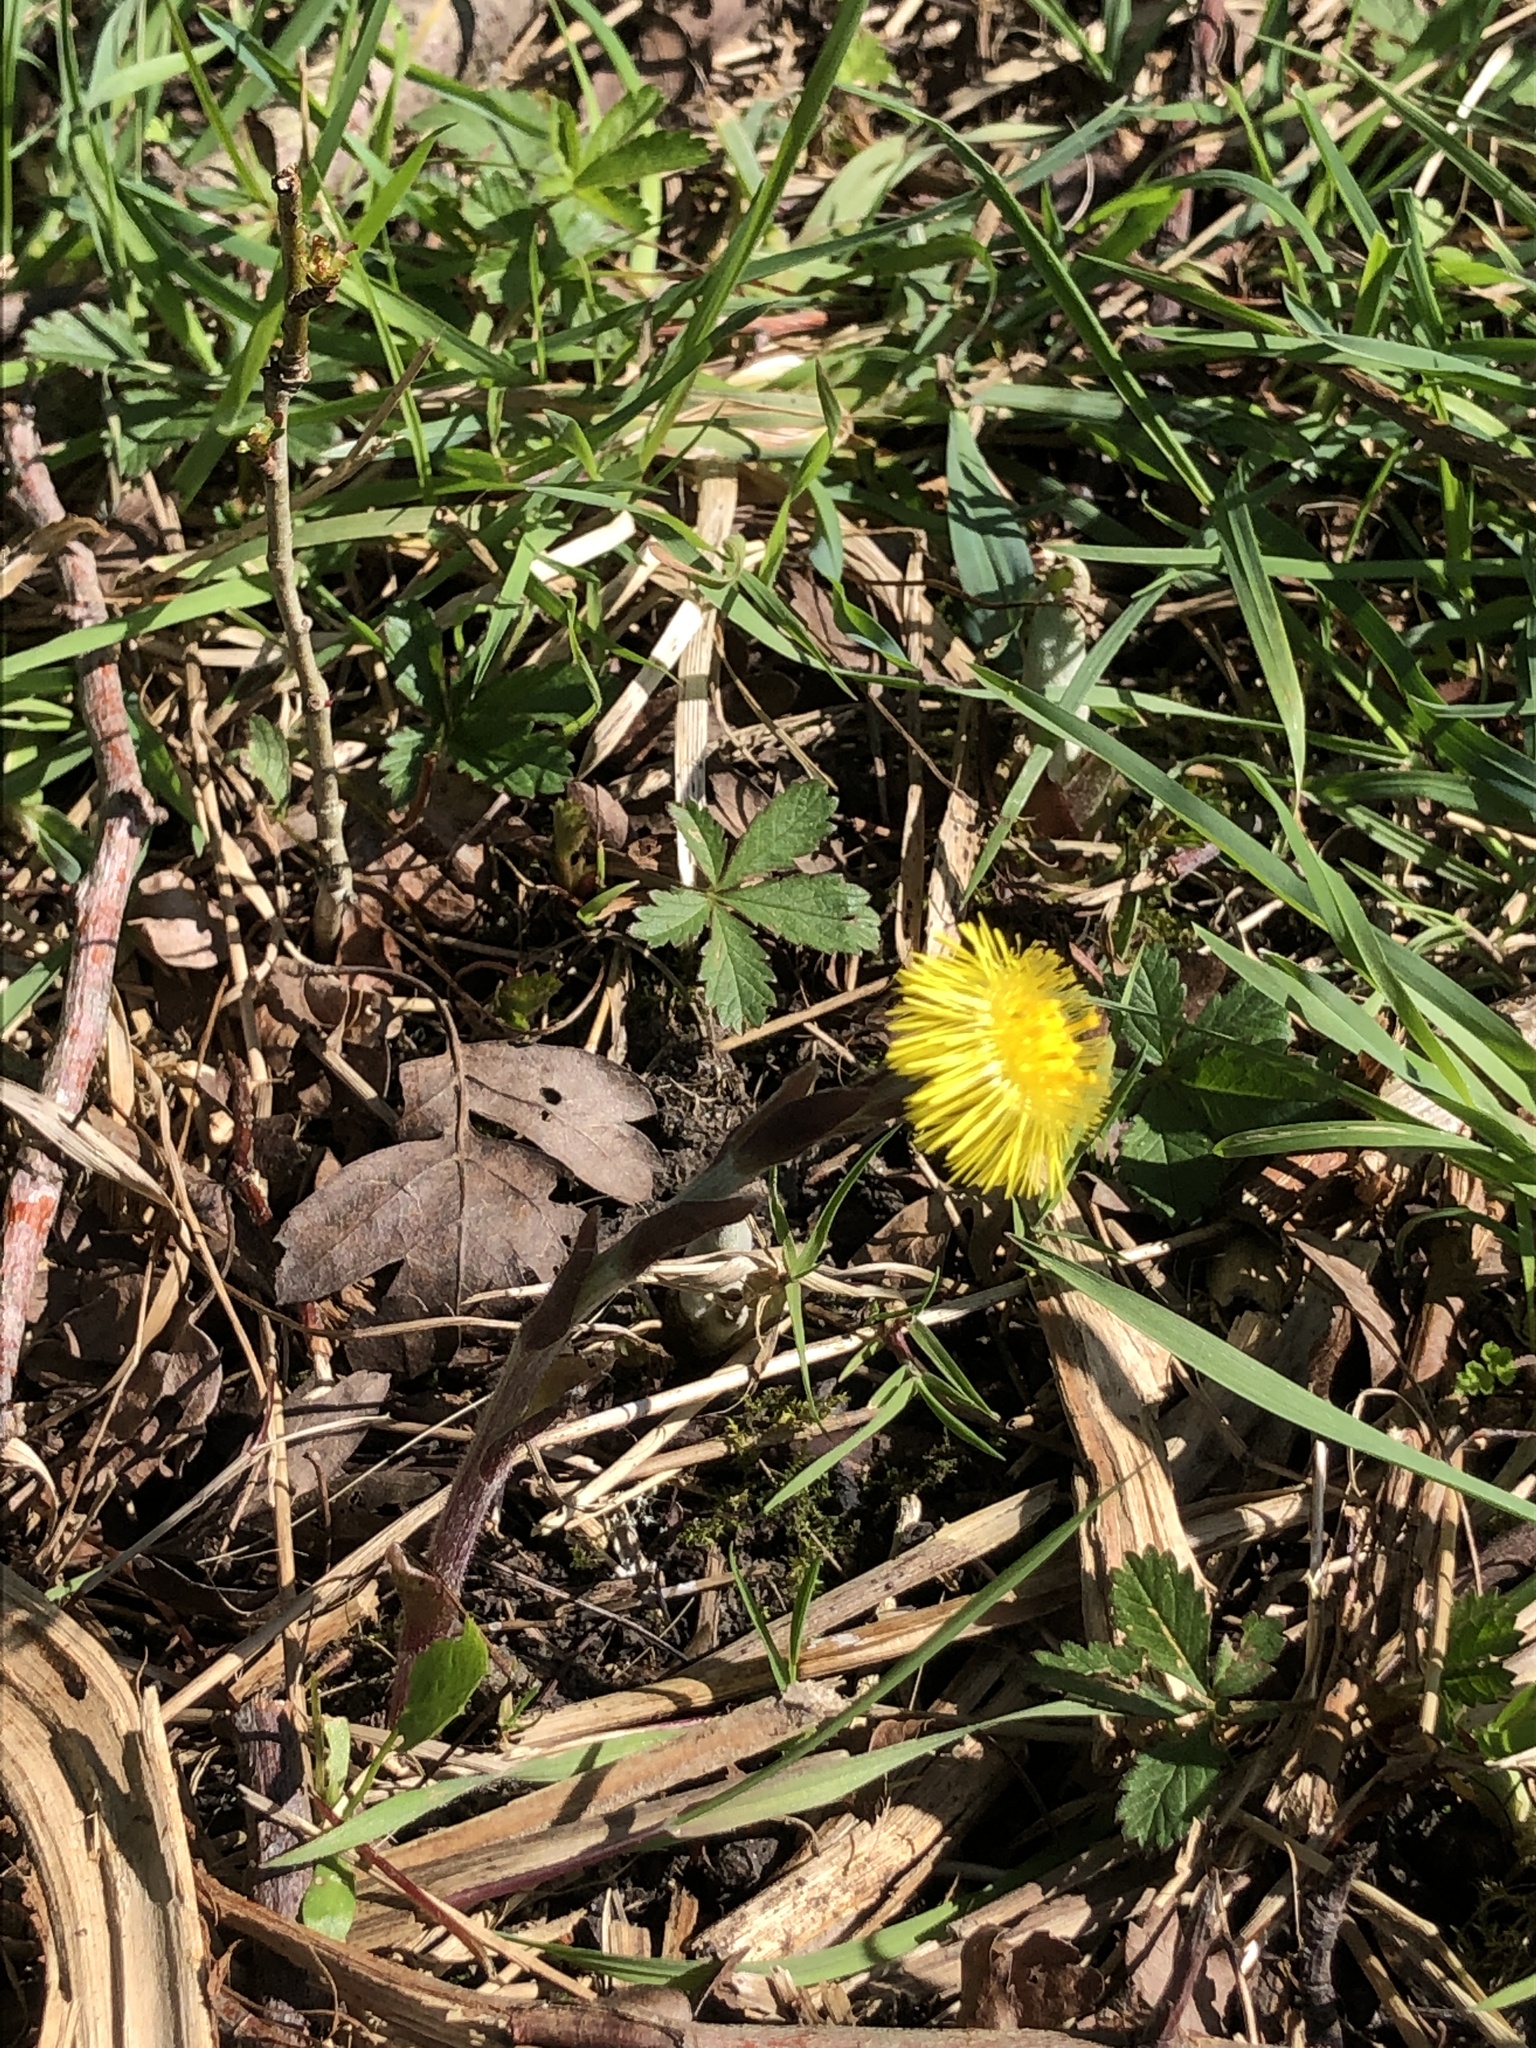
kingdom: Plantae
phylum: Tracheophyta
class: Magnoliopsida
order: Asterales
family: Asteraceae
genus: Tussilago
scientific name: Tussilago farfara
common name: Coltsfoot
